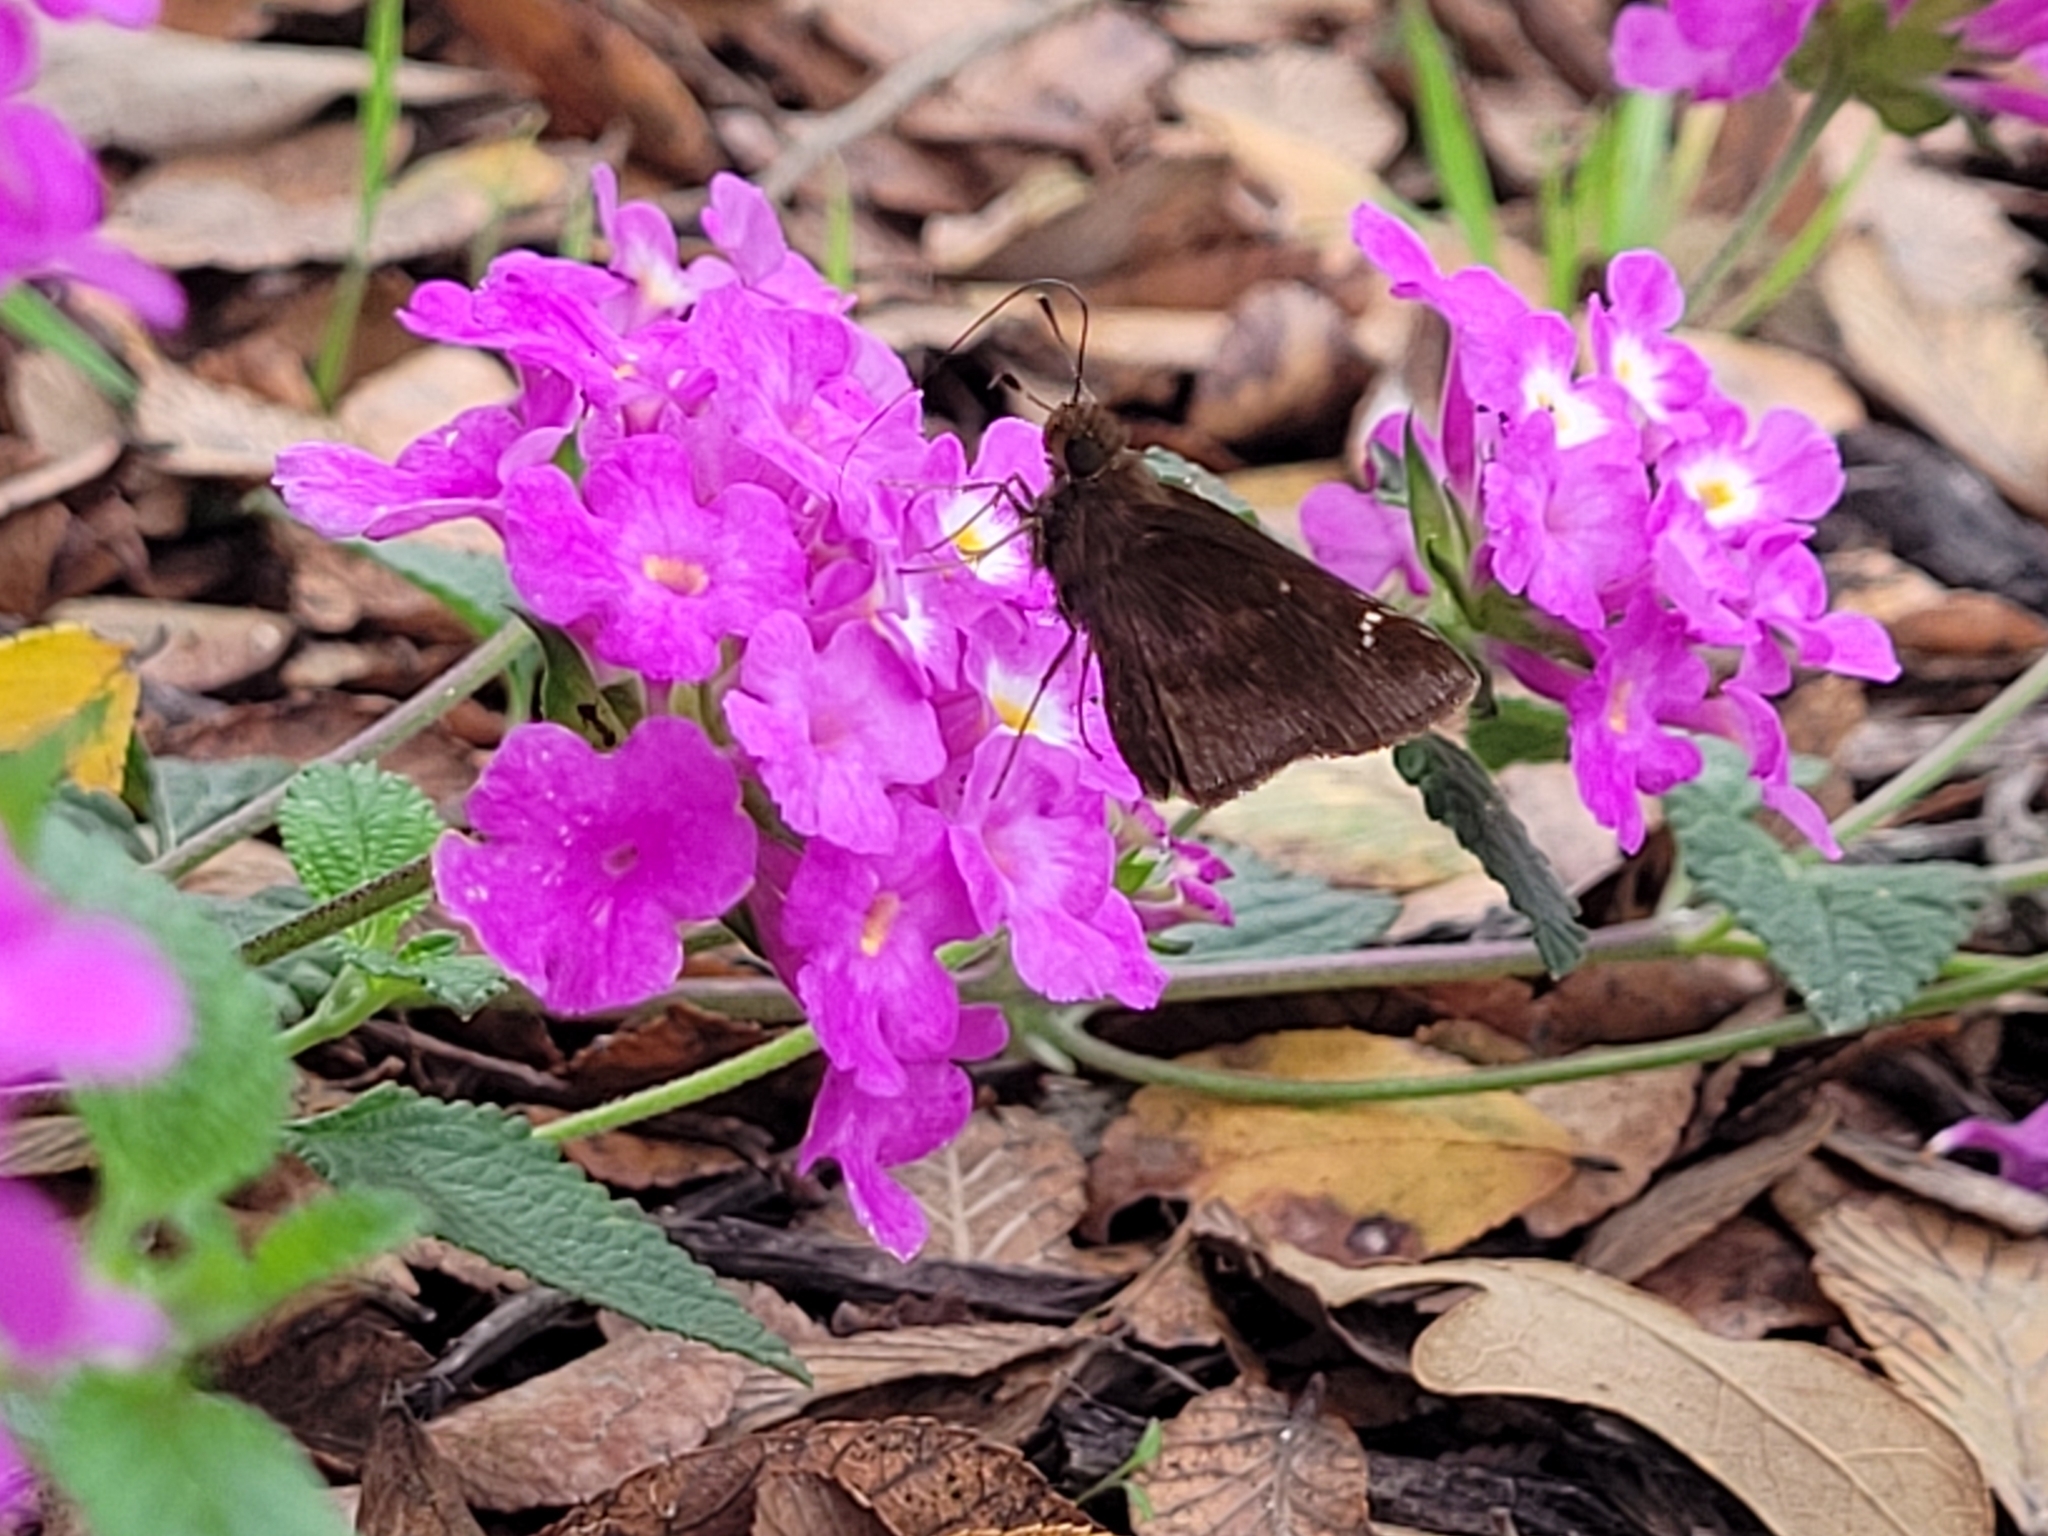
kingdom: Animalia
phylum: Arthropoda
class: Insecta
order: Lepidoptera
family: Hesperiidae
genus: Lerema
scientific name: Lerema accius
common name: Clouded skipper
